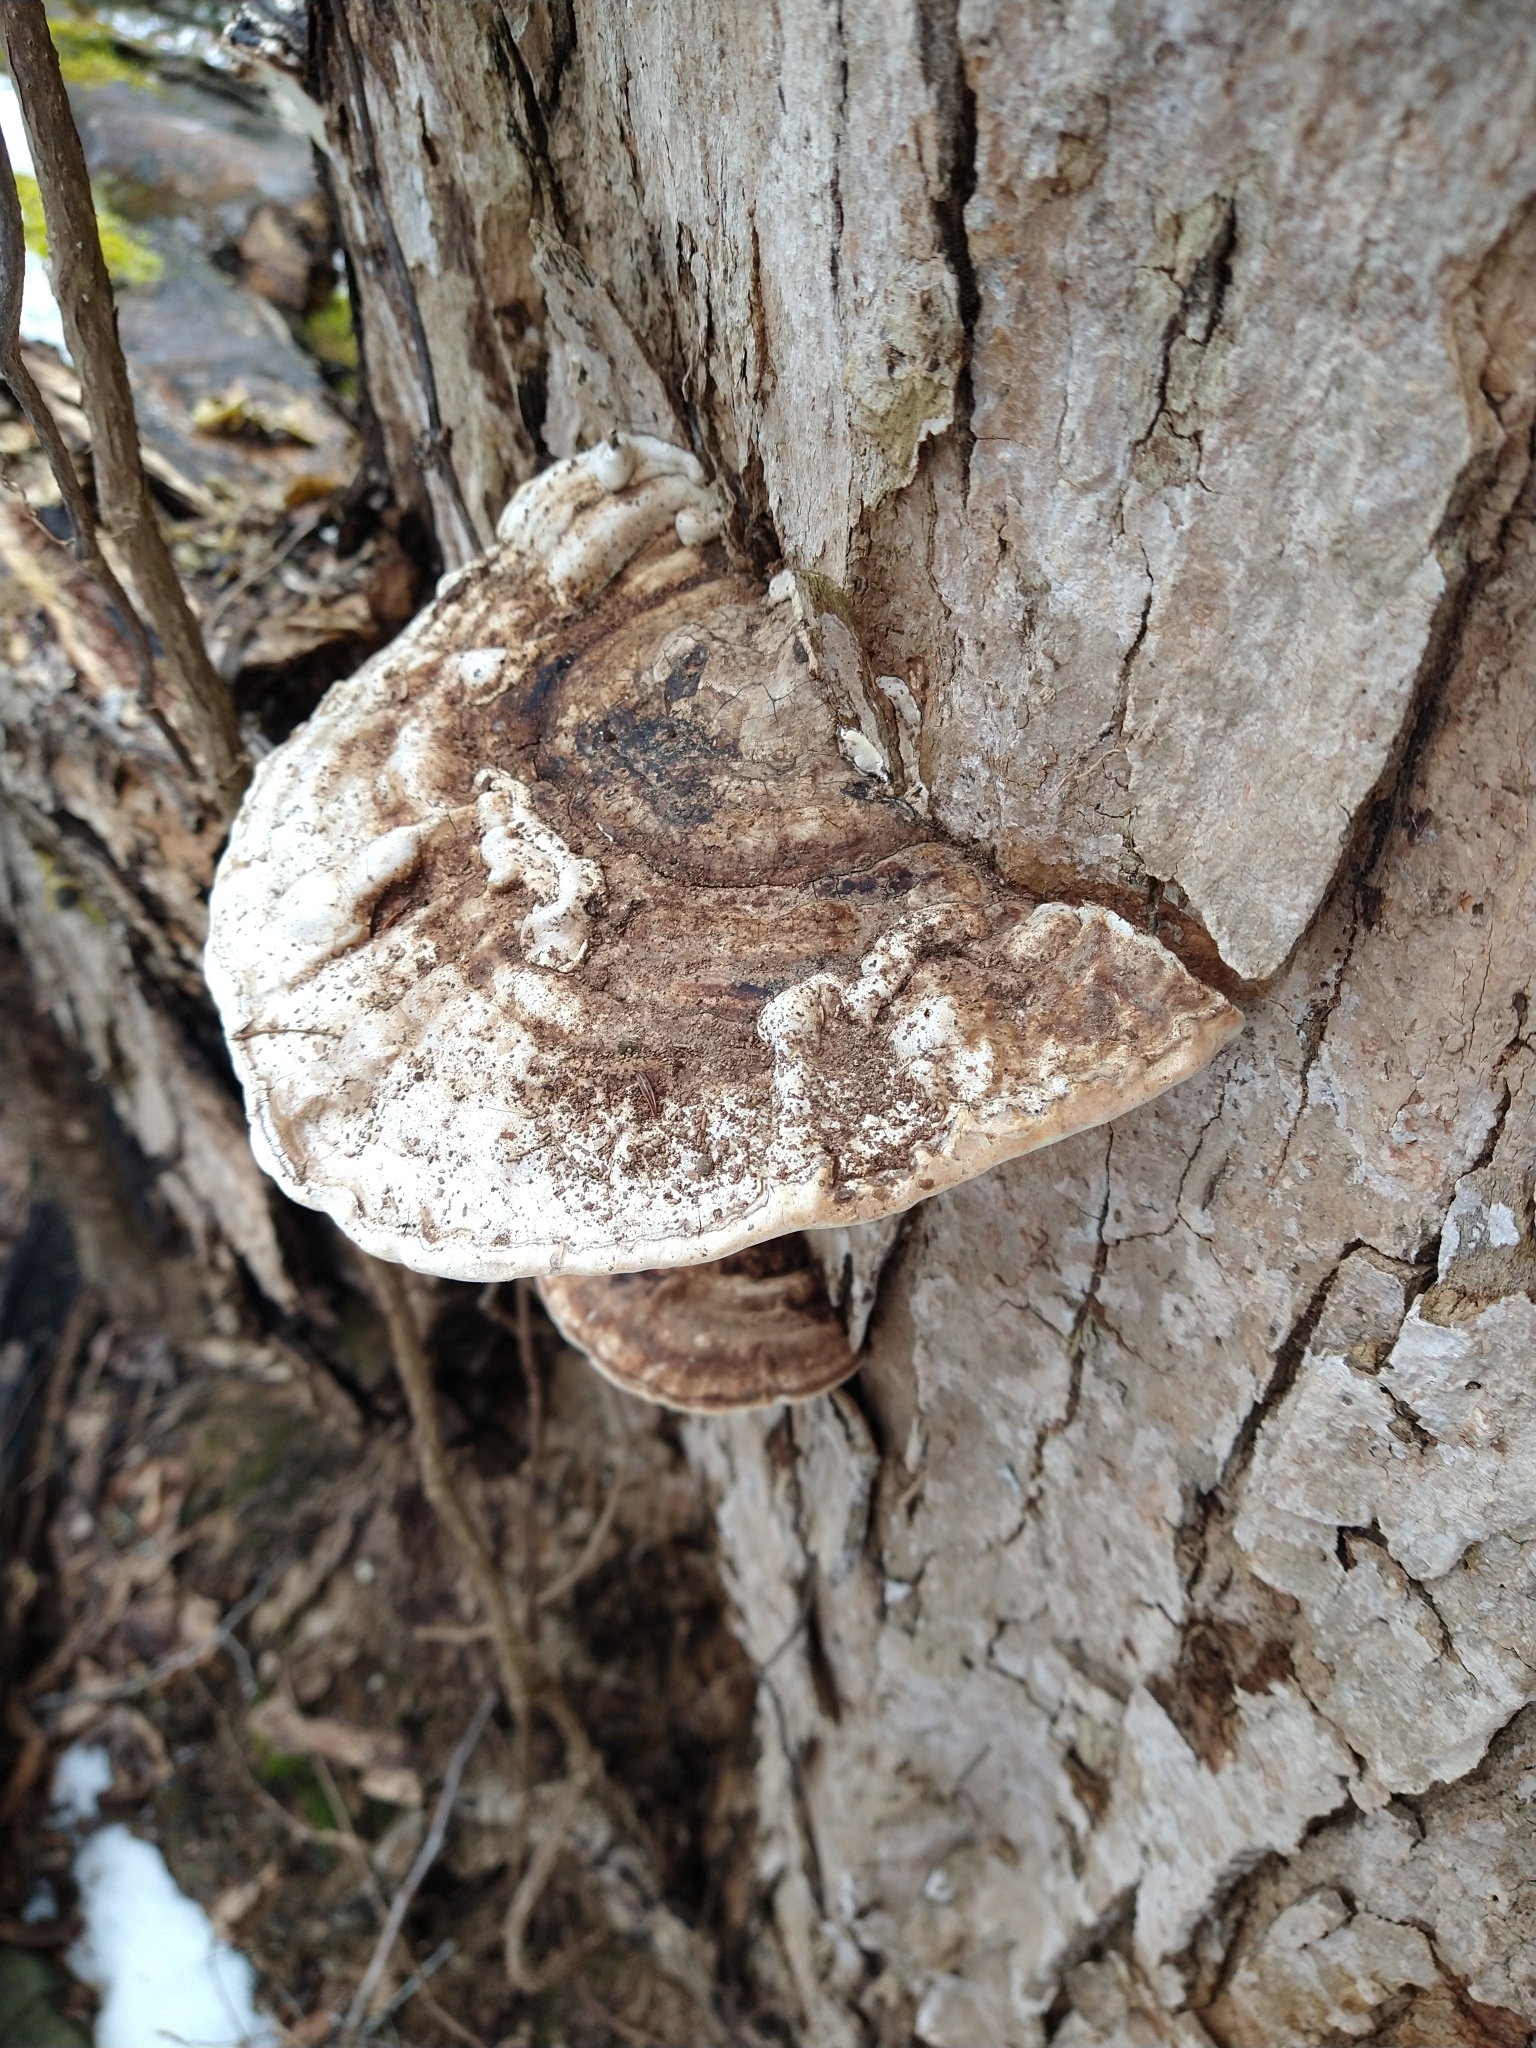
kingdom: Fungi
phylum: Basidiomycota
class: Agaricomycetes
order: Polyporales
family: Polyporaceae
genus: Ganoderma
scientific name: Ganoderma applanatum
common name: Artist's bracket
